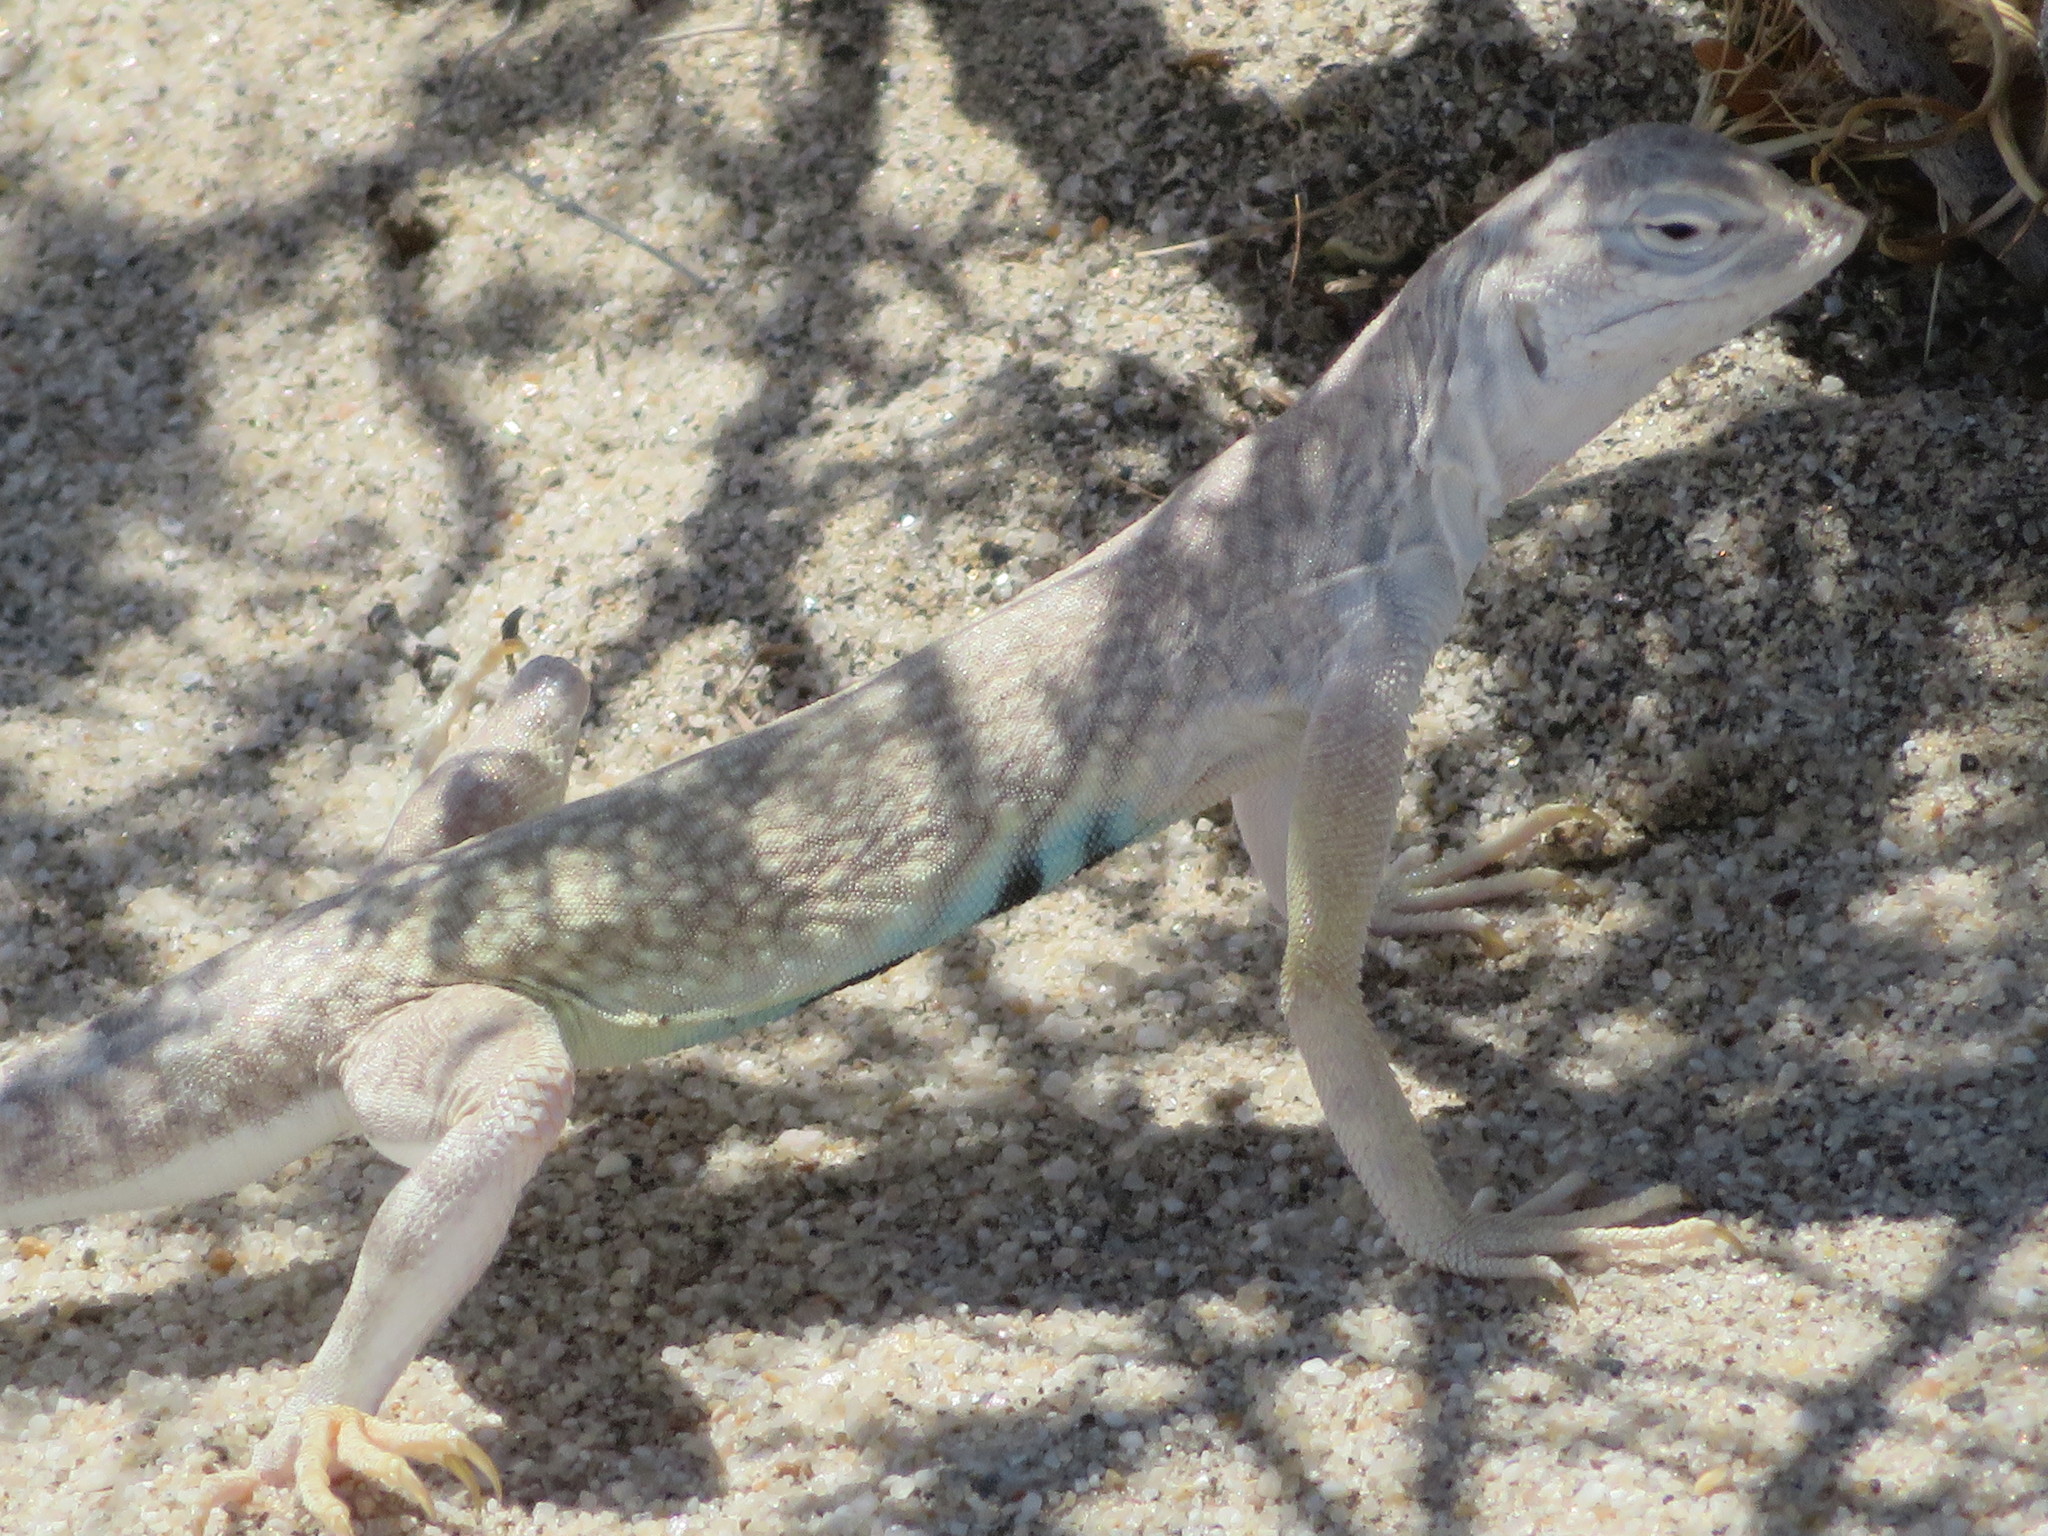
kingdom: Animalia
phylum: Chordata
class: Squamata
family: Phrynosomatidae
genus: Callisaurus
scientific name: Callisaurus draconoides
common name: Zebra-tailed lizard
